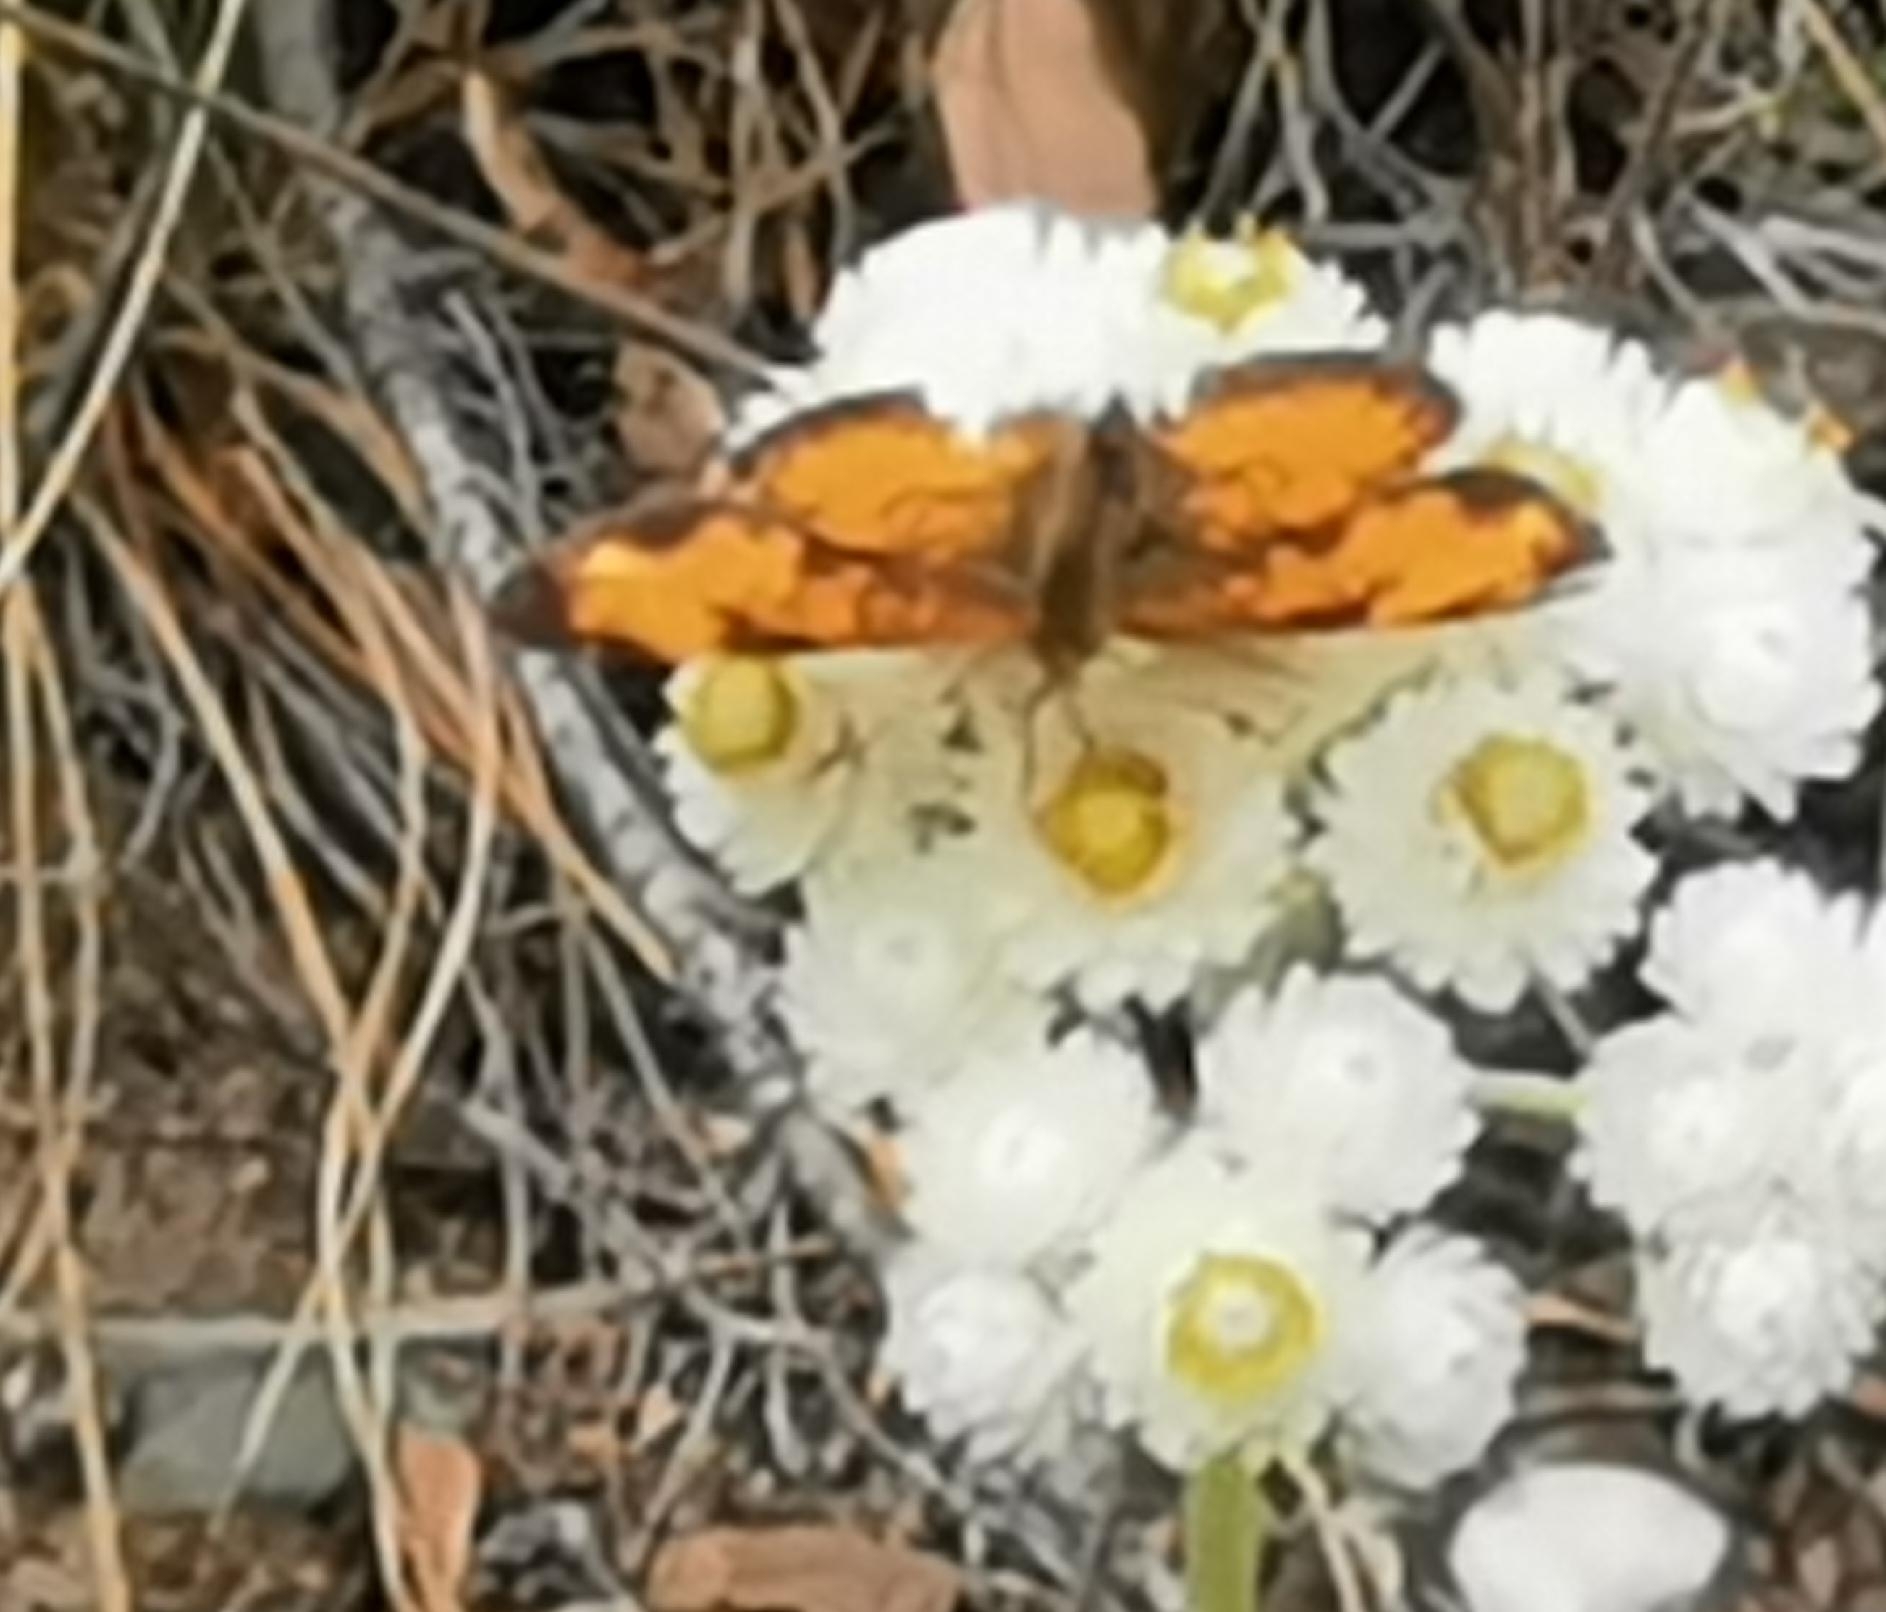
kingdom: Animalia
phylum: Arthropoda
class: Insecta
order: Lepidoptera
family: Nymphalidae
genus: Phyciodes
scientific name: Phyciodes tharos
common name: Pearl crescent
